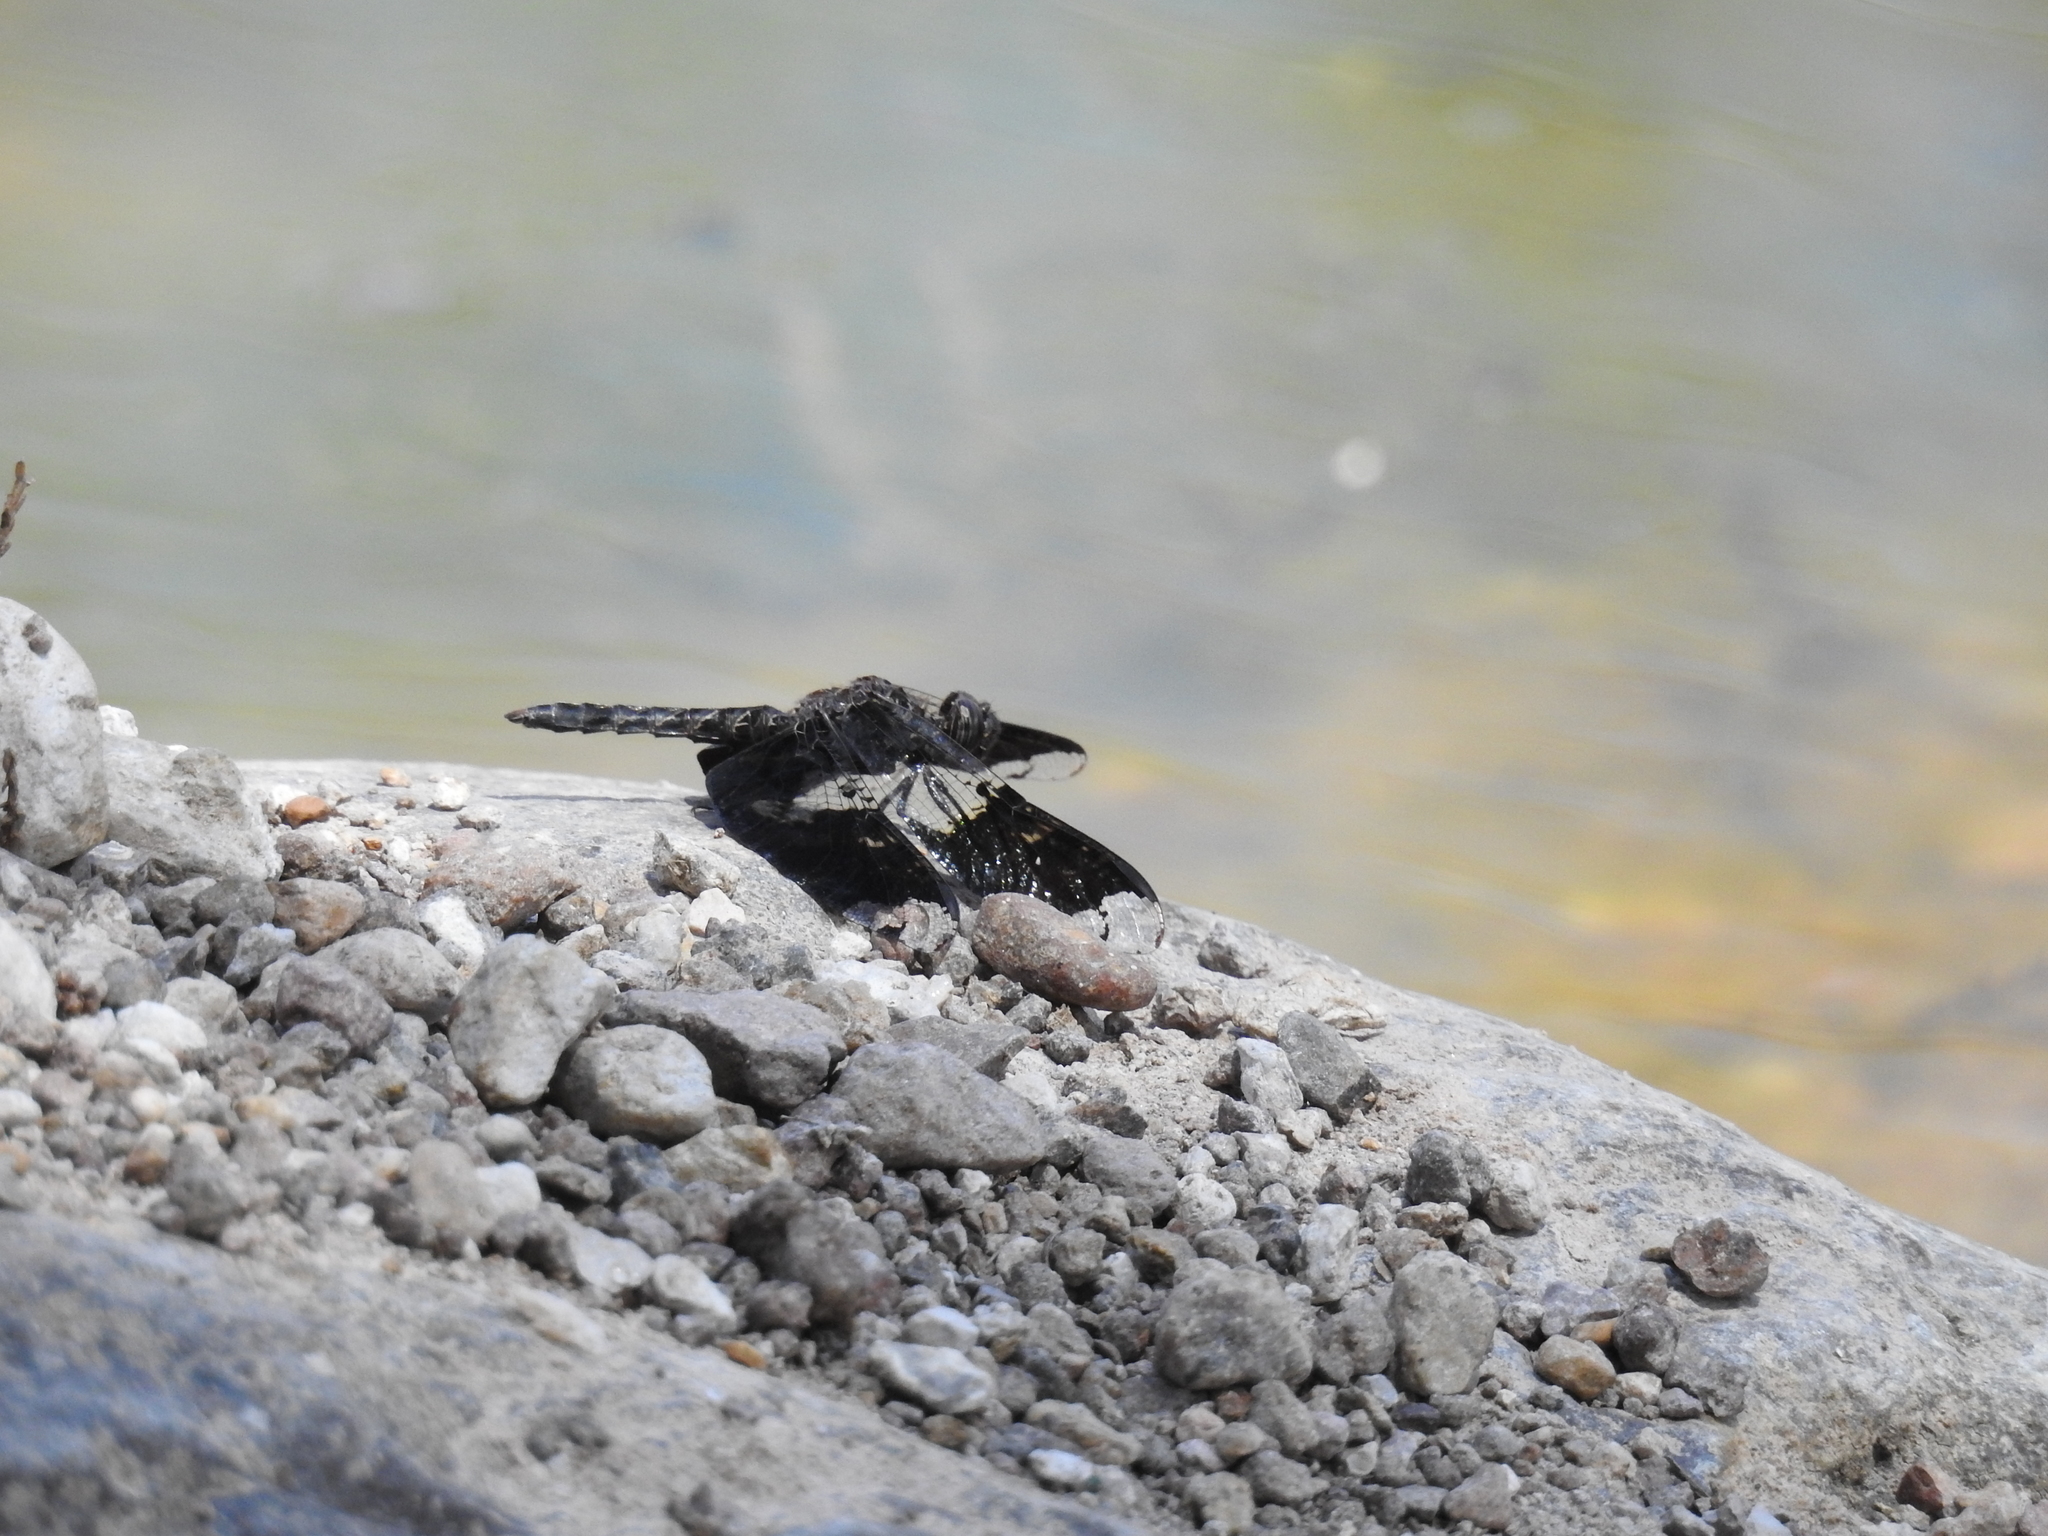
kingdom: Animalia
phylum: Arthropoda
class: Insecta
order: Odonata
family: Libellulidae
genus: Pseudoleon
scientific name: Pseudoleon superbus
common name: Filigree skimmer
